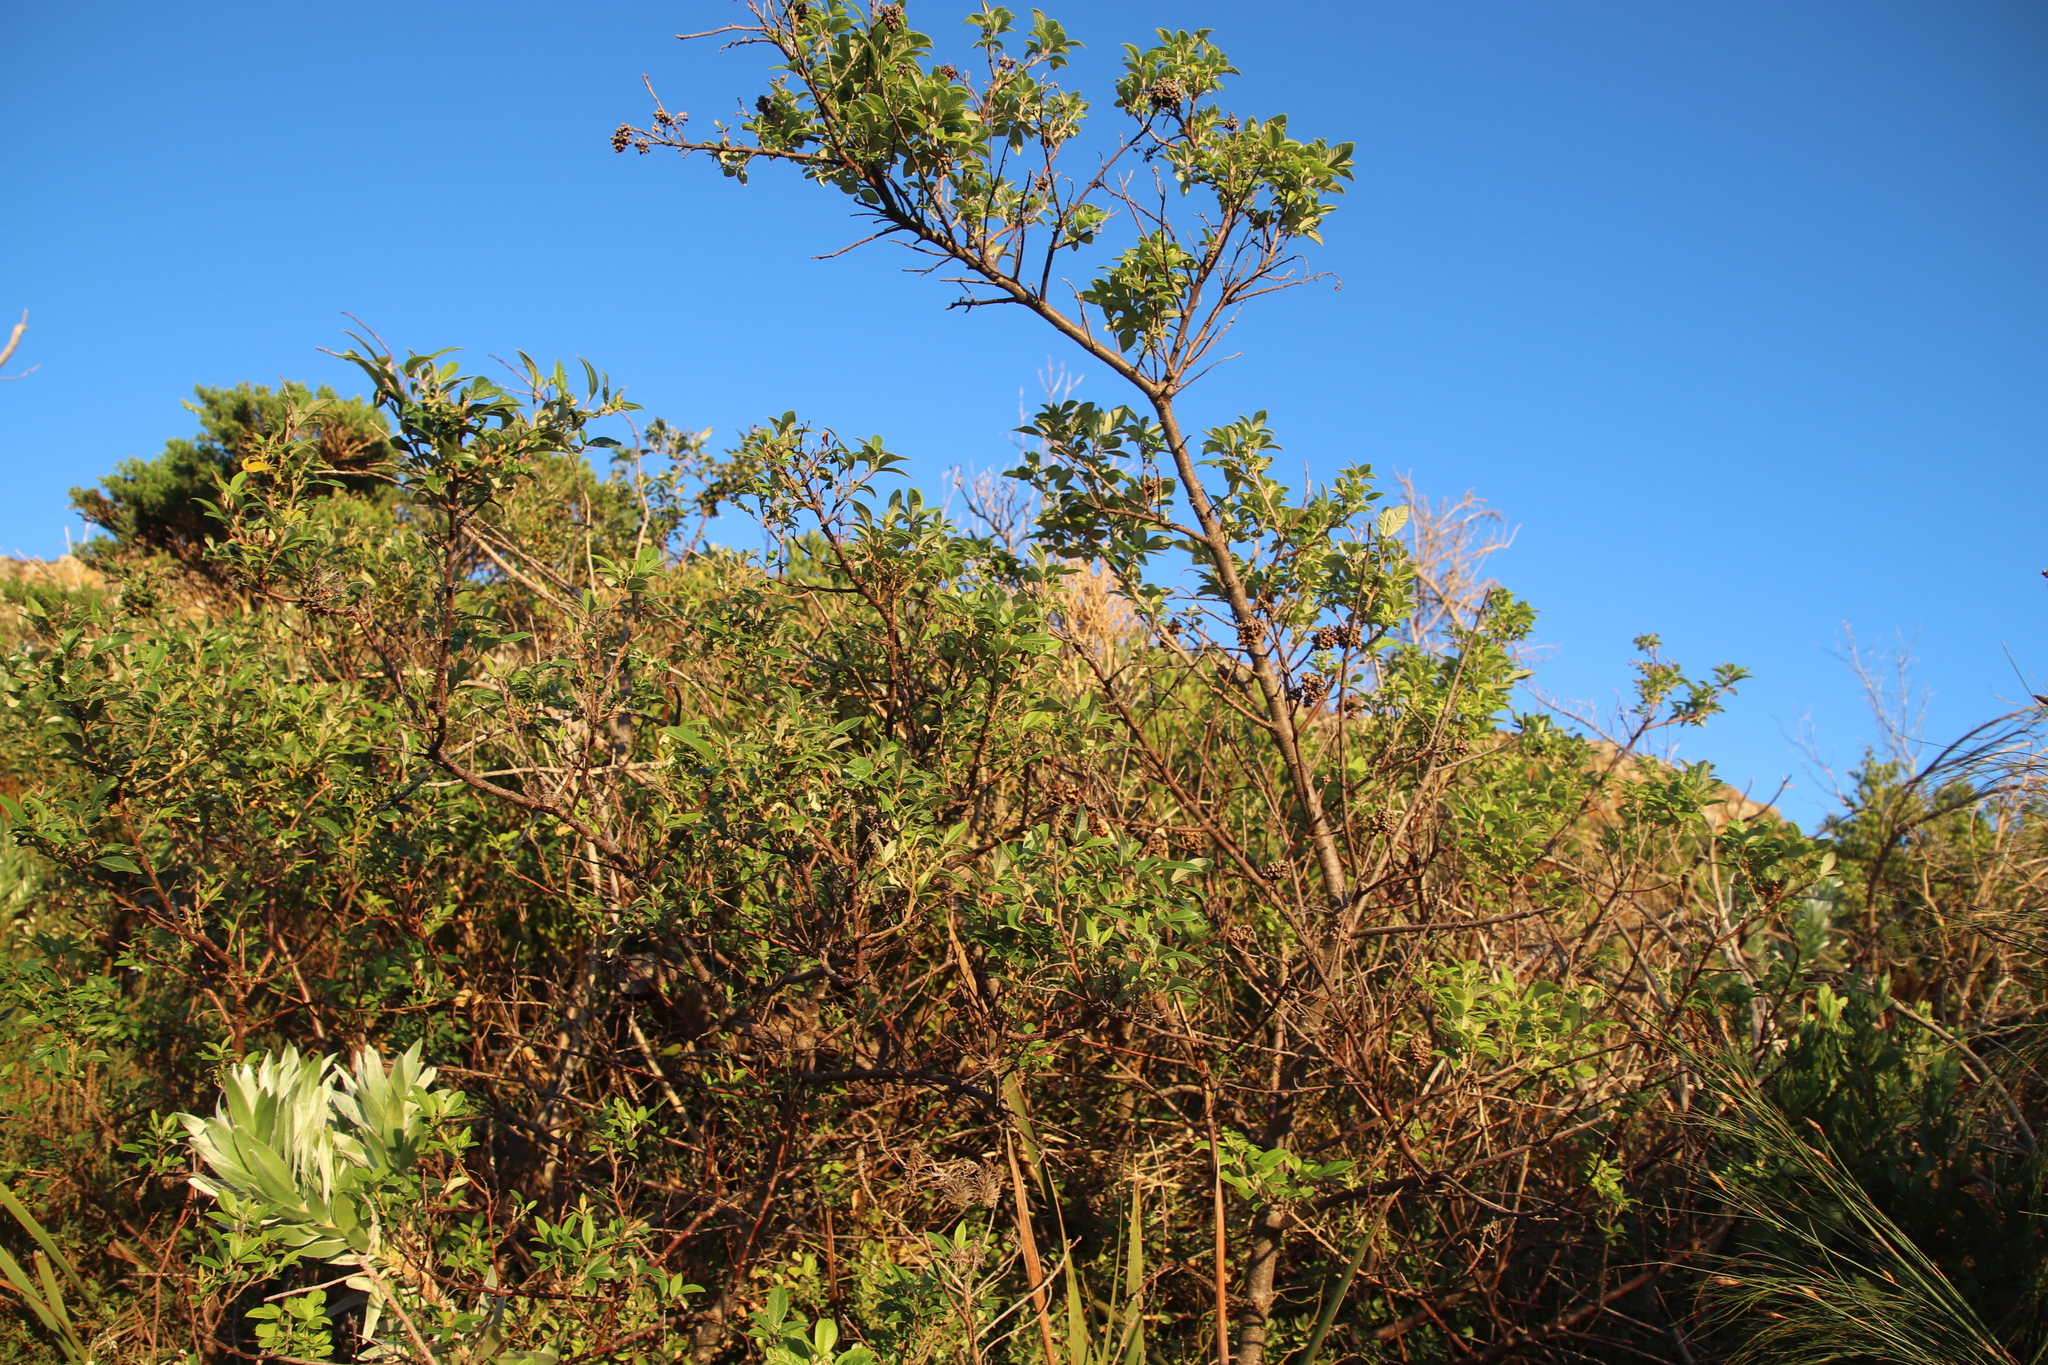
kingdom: Plantae
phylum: Tracheophyta
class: Magnoliopsida
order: Sapindales
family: Anacardiaceae
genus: Searsia
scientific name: Searsia tomentosa
